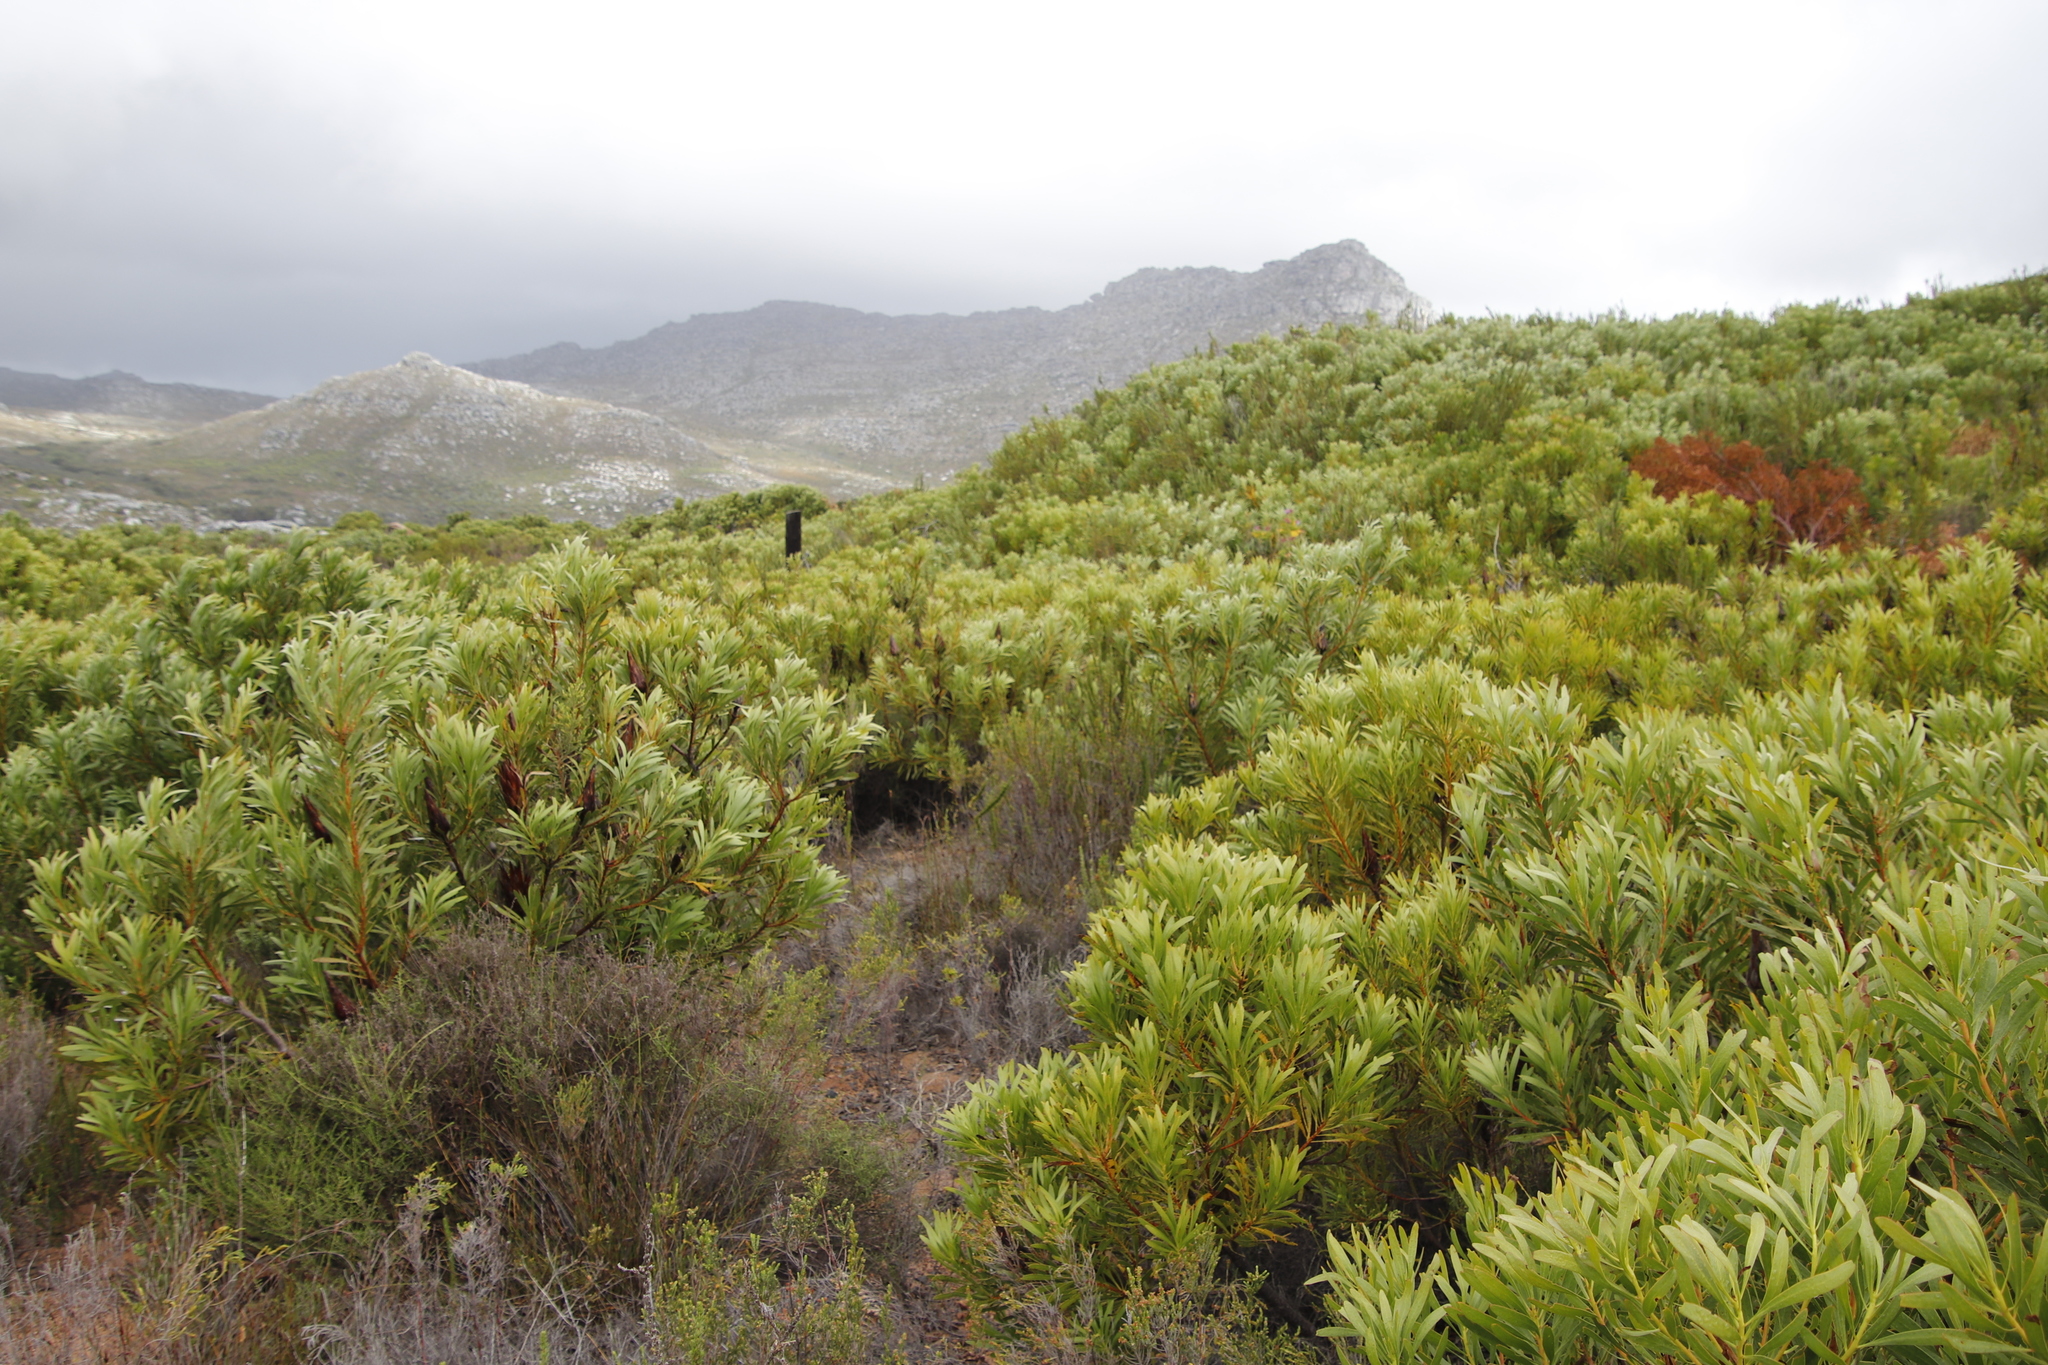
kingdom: Plantae
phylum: Tracheophyta
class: Magnoliopsida
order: Proteales
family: Proteaceae
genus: Protea
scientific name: Protea repens
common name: Sugarbush
